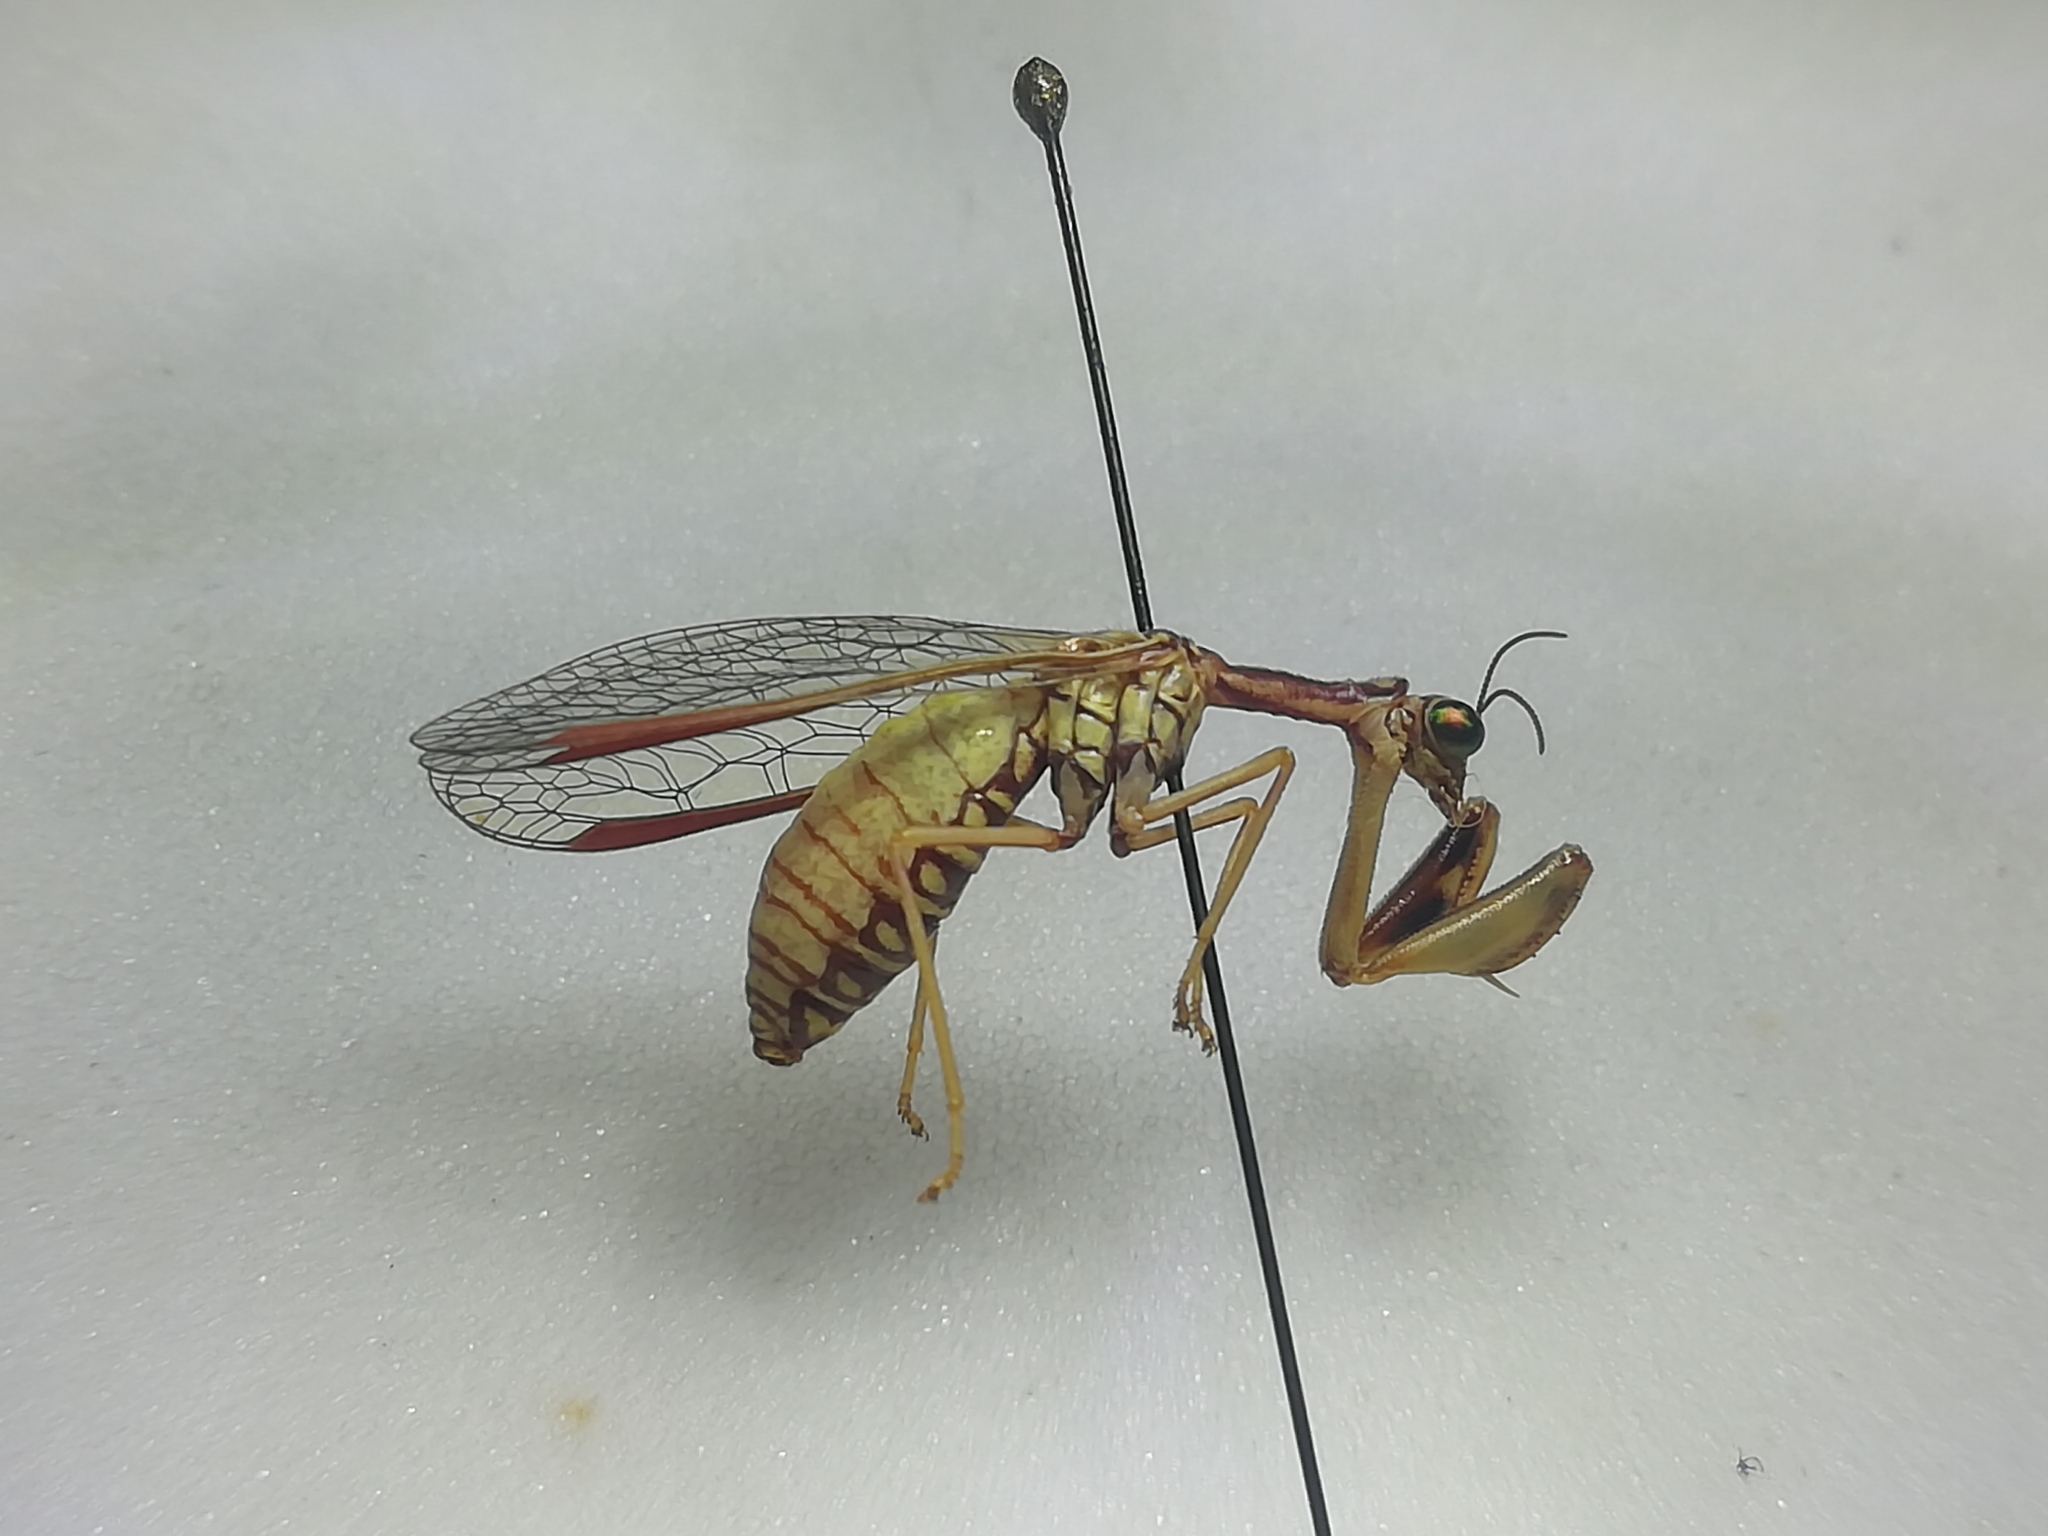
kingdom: Animalia
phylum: Arthropoda
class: Insecta
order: Neuroptera
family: Mantispidae
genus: Mantispa
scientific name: Mantispa aphavexelte
